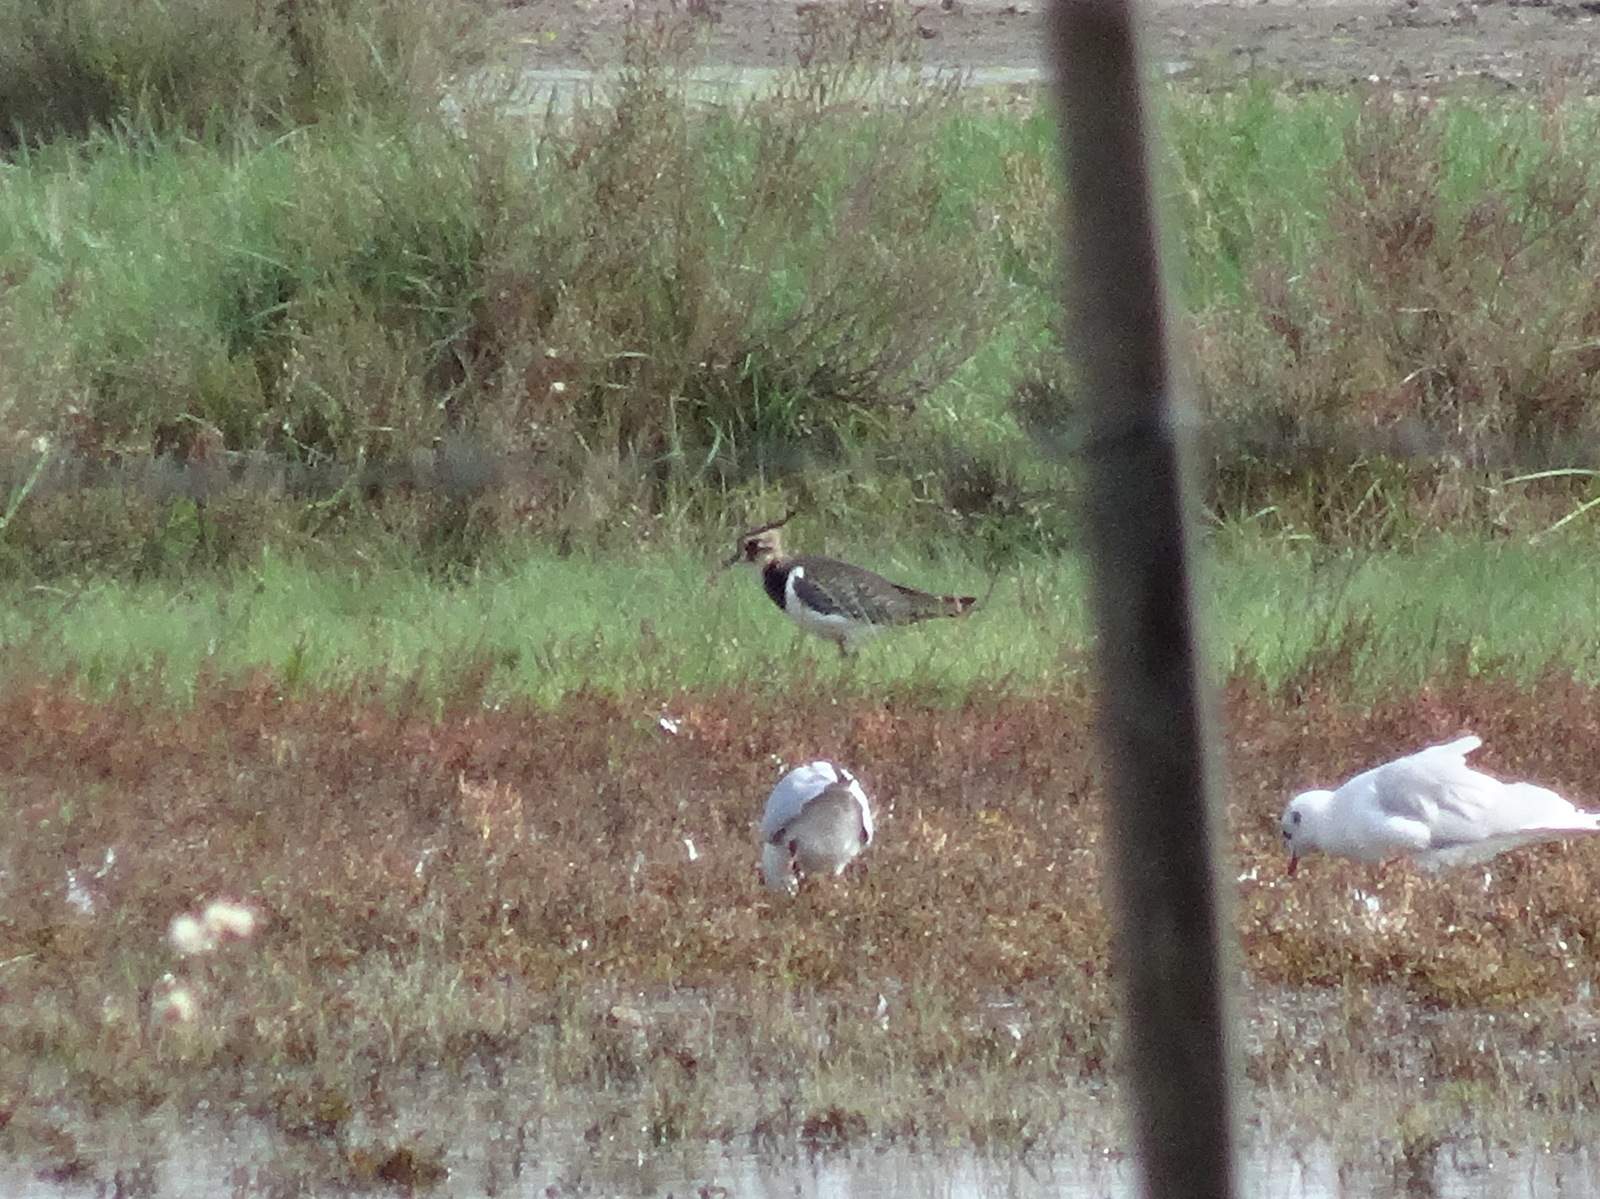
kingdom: Animalia
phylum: Chordata
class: Aves
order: Charadriiformes
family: Charadriidae
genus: Vanellus
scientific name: Vanellus vanellus
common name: Northern lapwing
